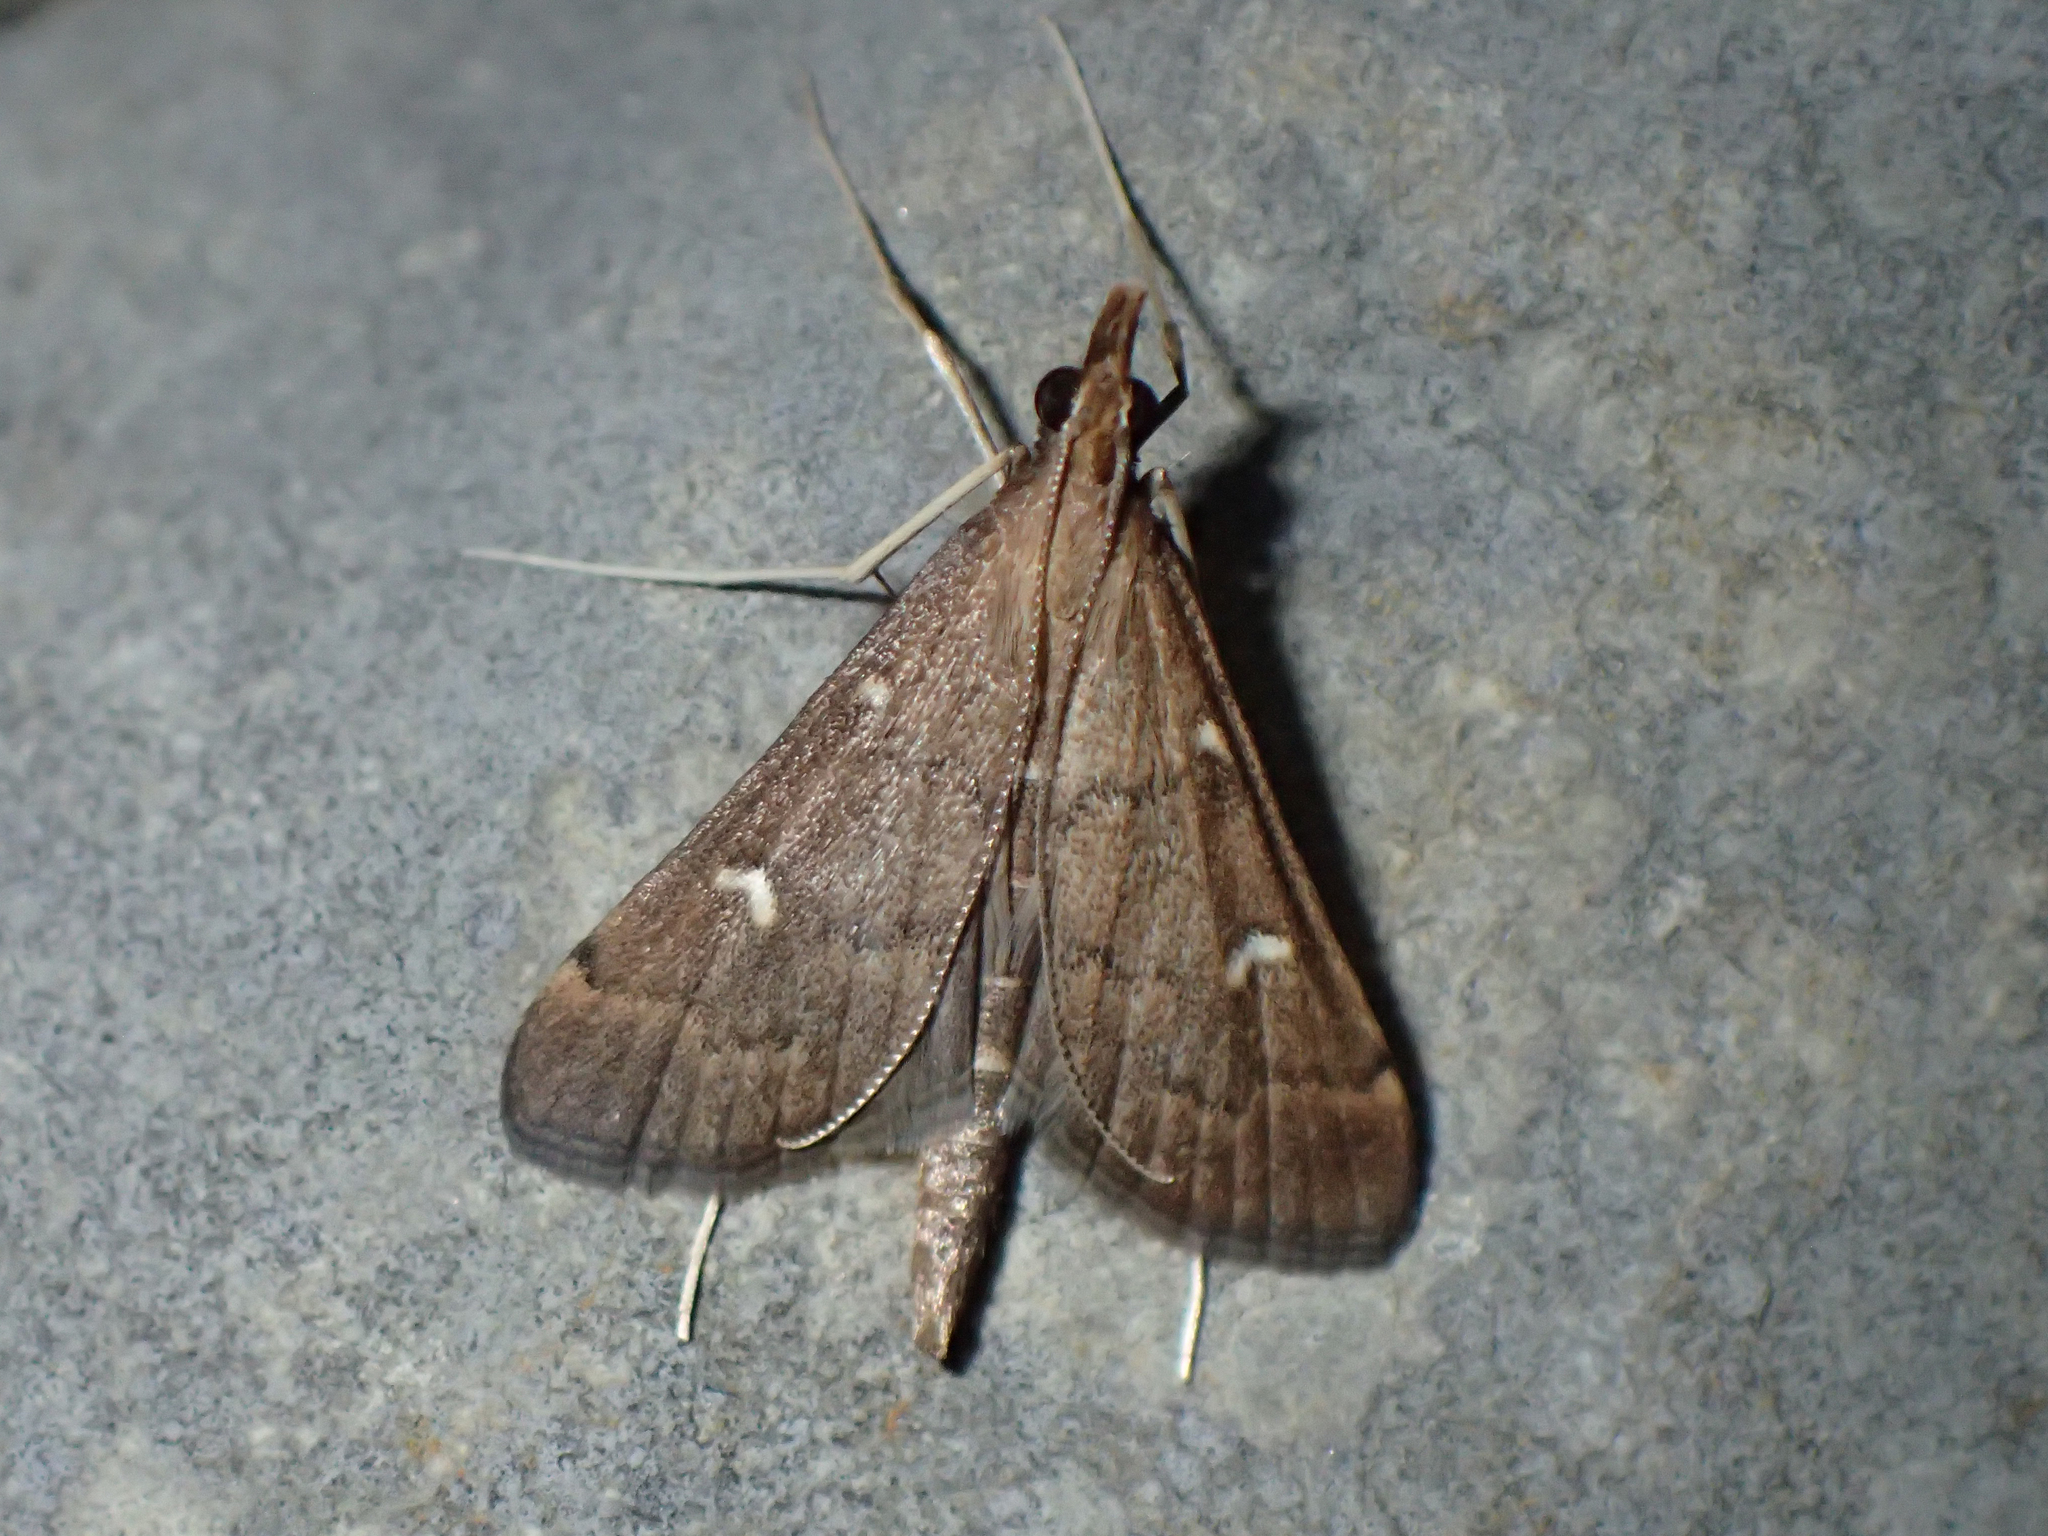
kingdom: Animalia
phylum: Arthropoda
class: Insecta
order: Lepidoptera
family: Crambidae
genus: Stenia
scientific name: Stenia Dolicharthria punctalis
